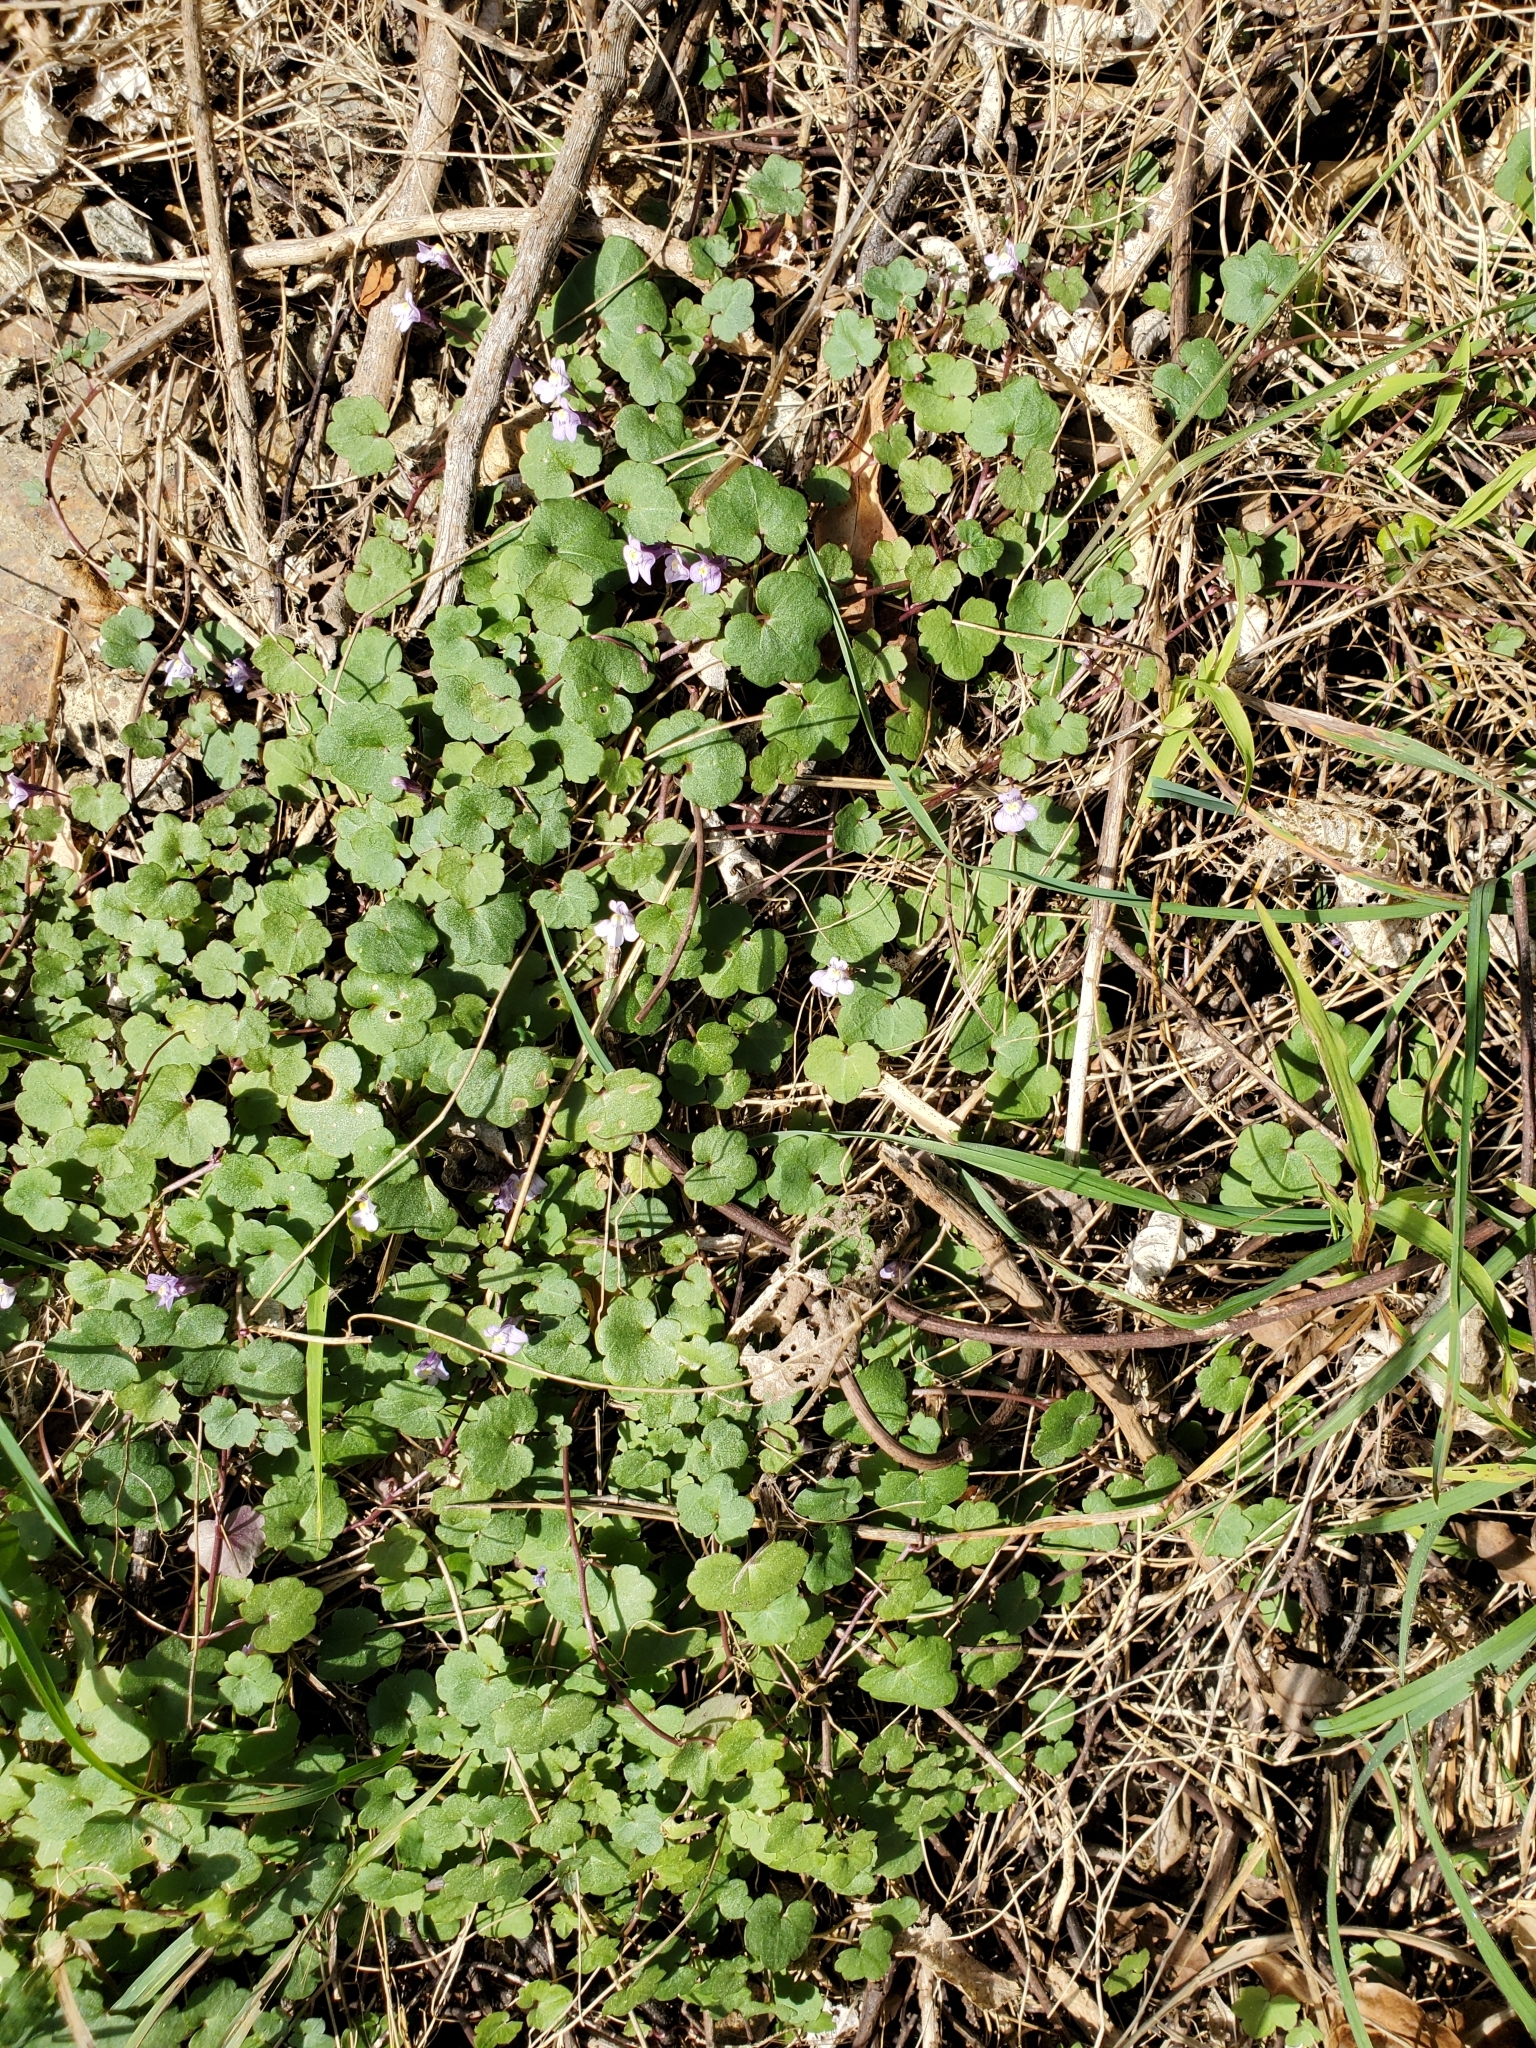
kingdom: Plantae
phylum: Tracheophyta
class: Magnoliopsida
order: Lamiales
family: Plantaginaceae
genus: Cymbalaria
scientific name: Cymbalaria muralis
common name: Ivy-leaved toadflax
